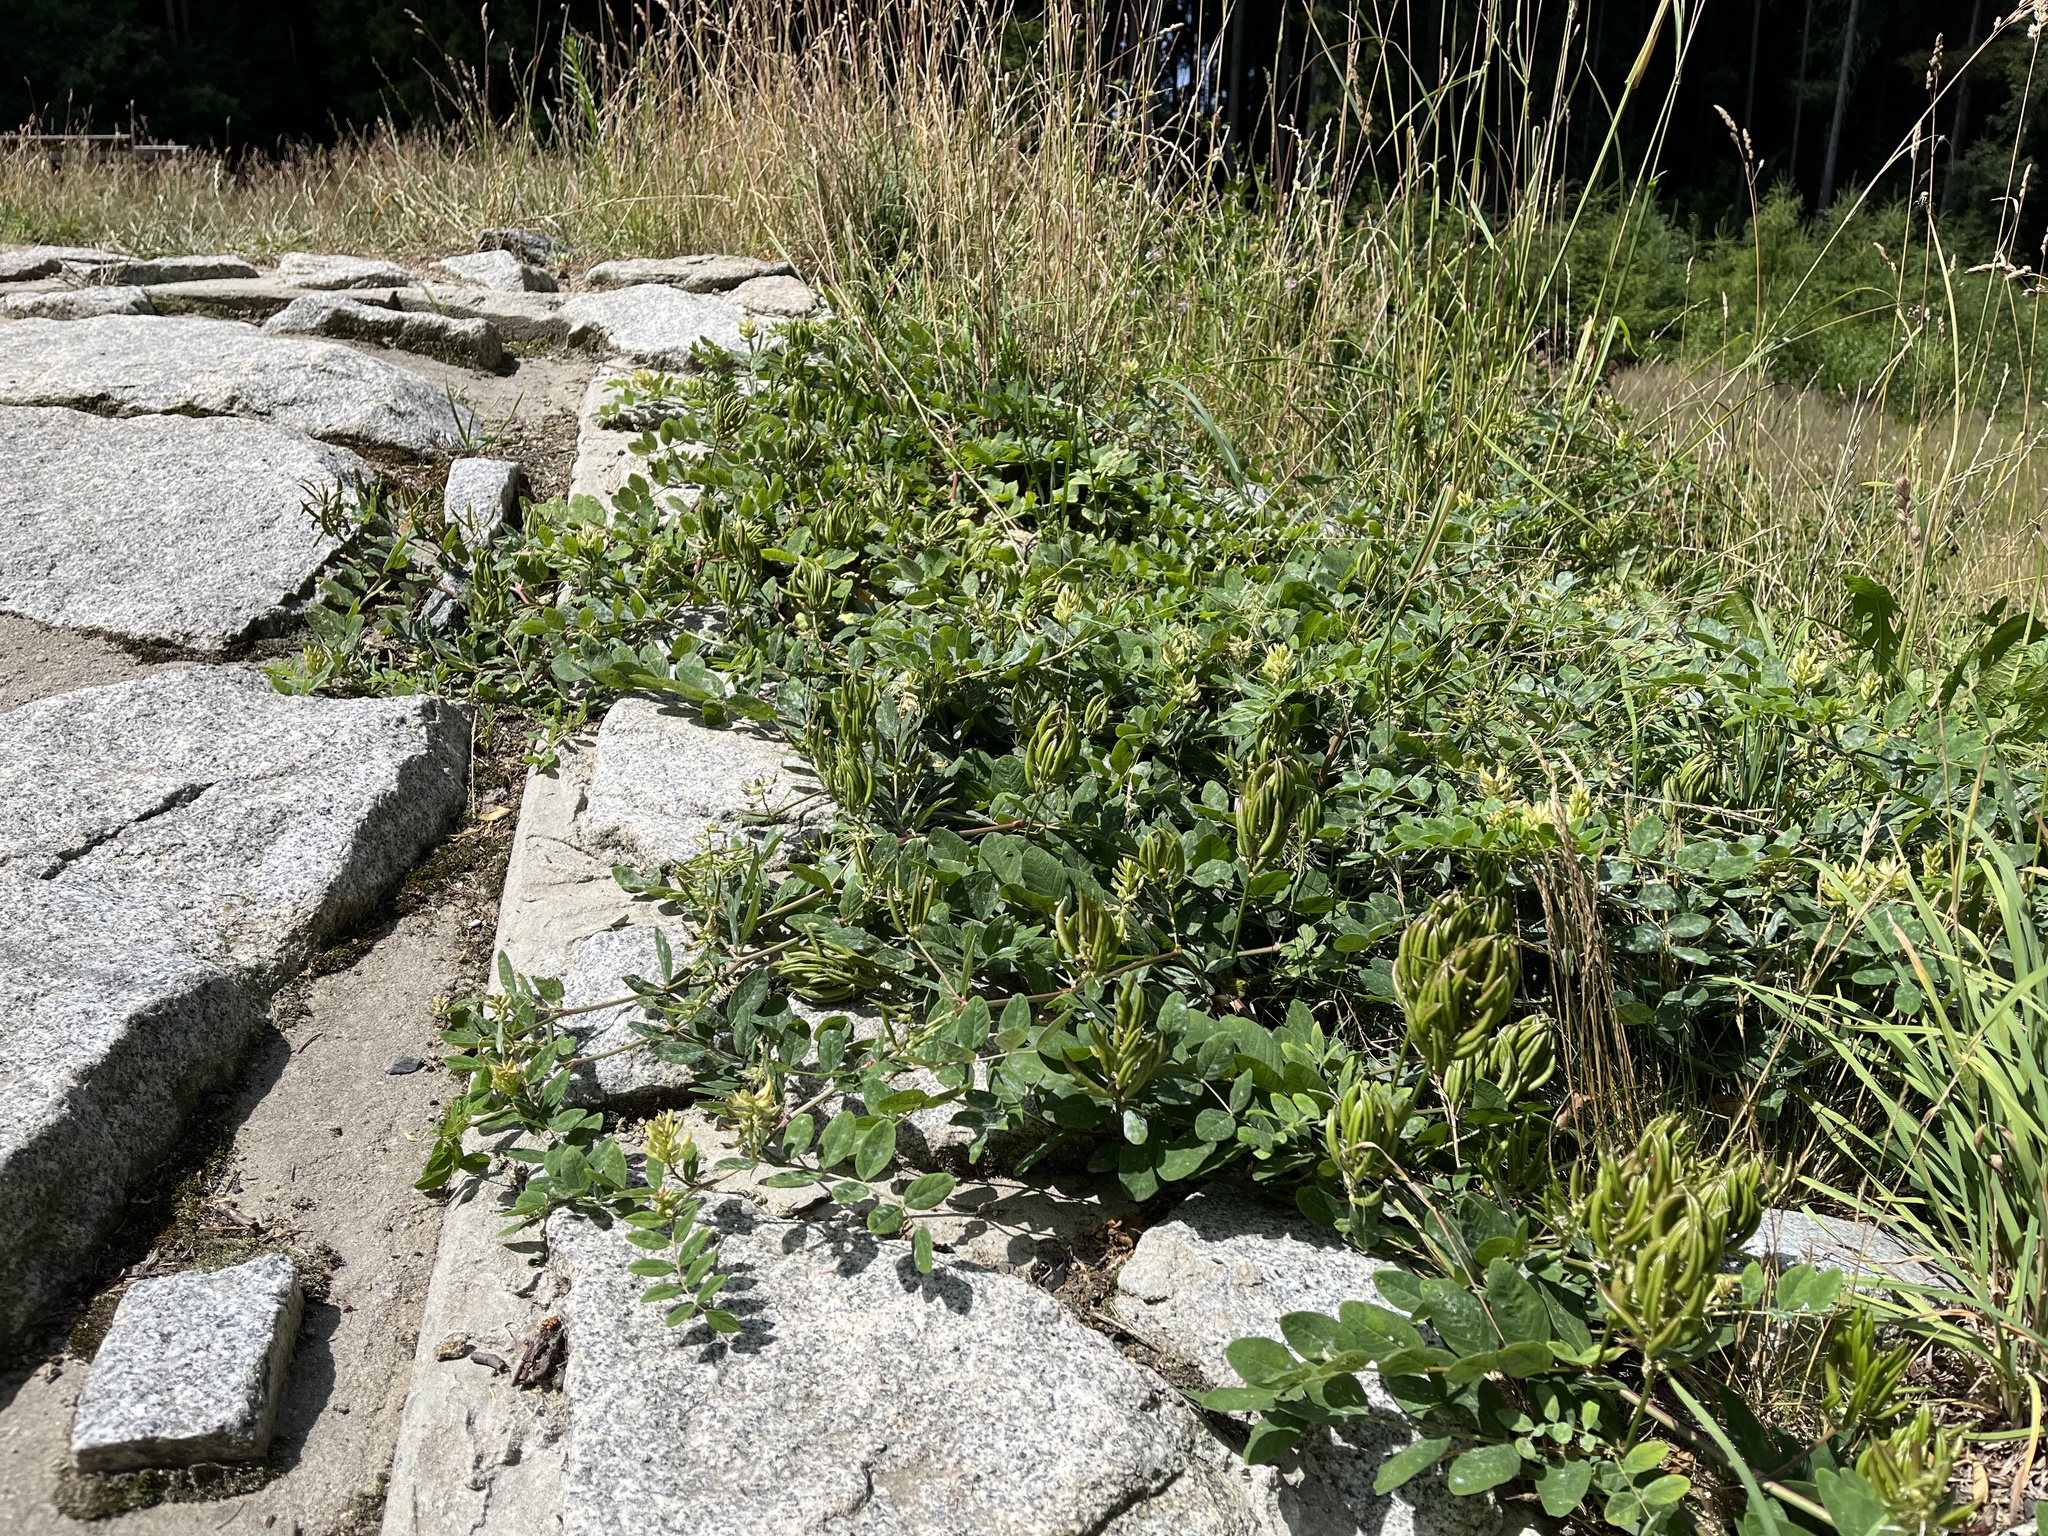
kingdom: Plantae
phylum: Tracheophyta
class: Magnoliopsida
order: Fabales
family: Fabaceae
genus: Astragalus
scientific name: Astragalus glycyphyllos
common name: Wild liquorice
